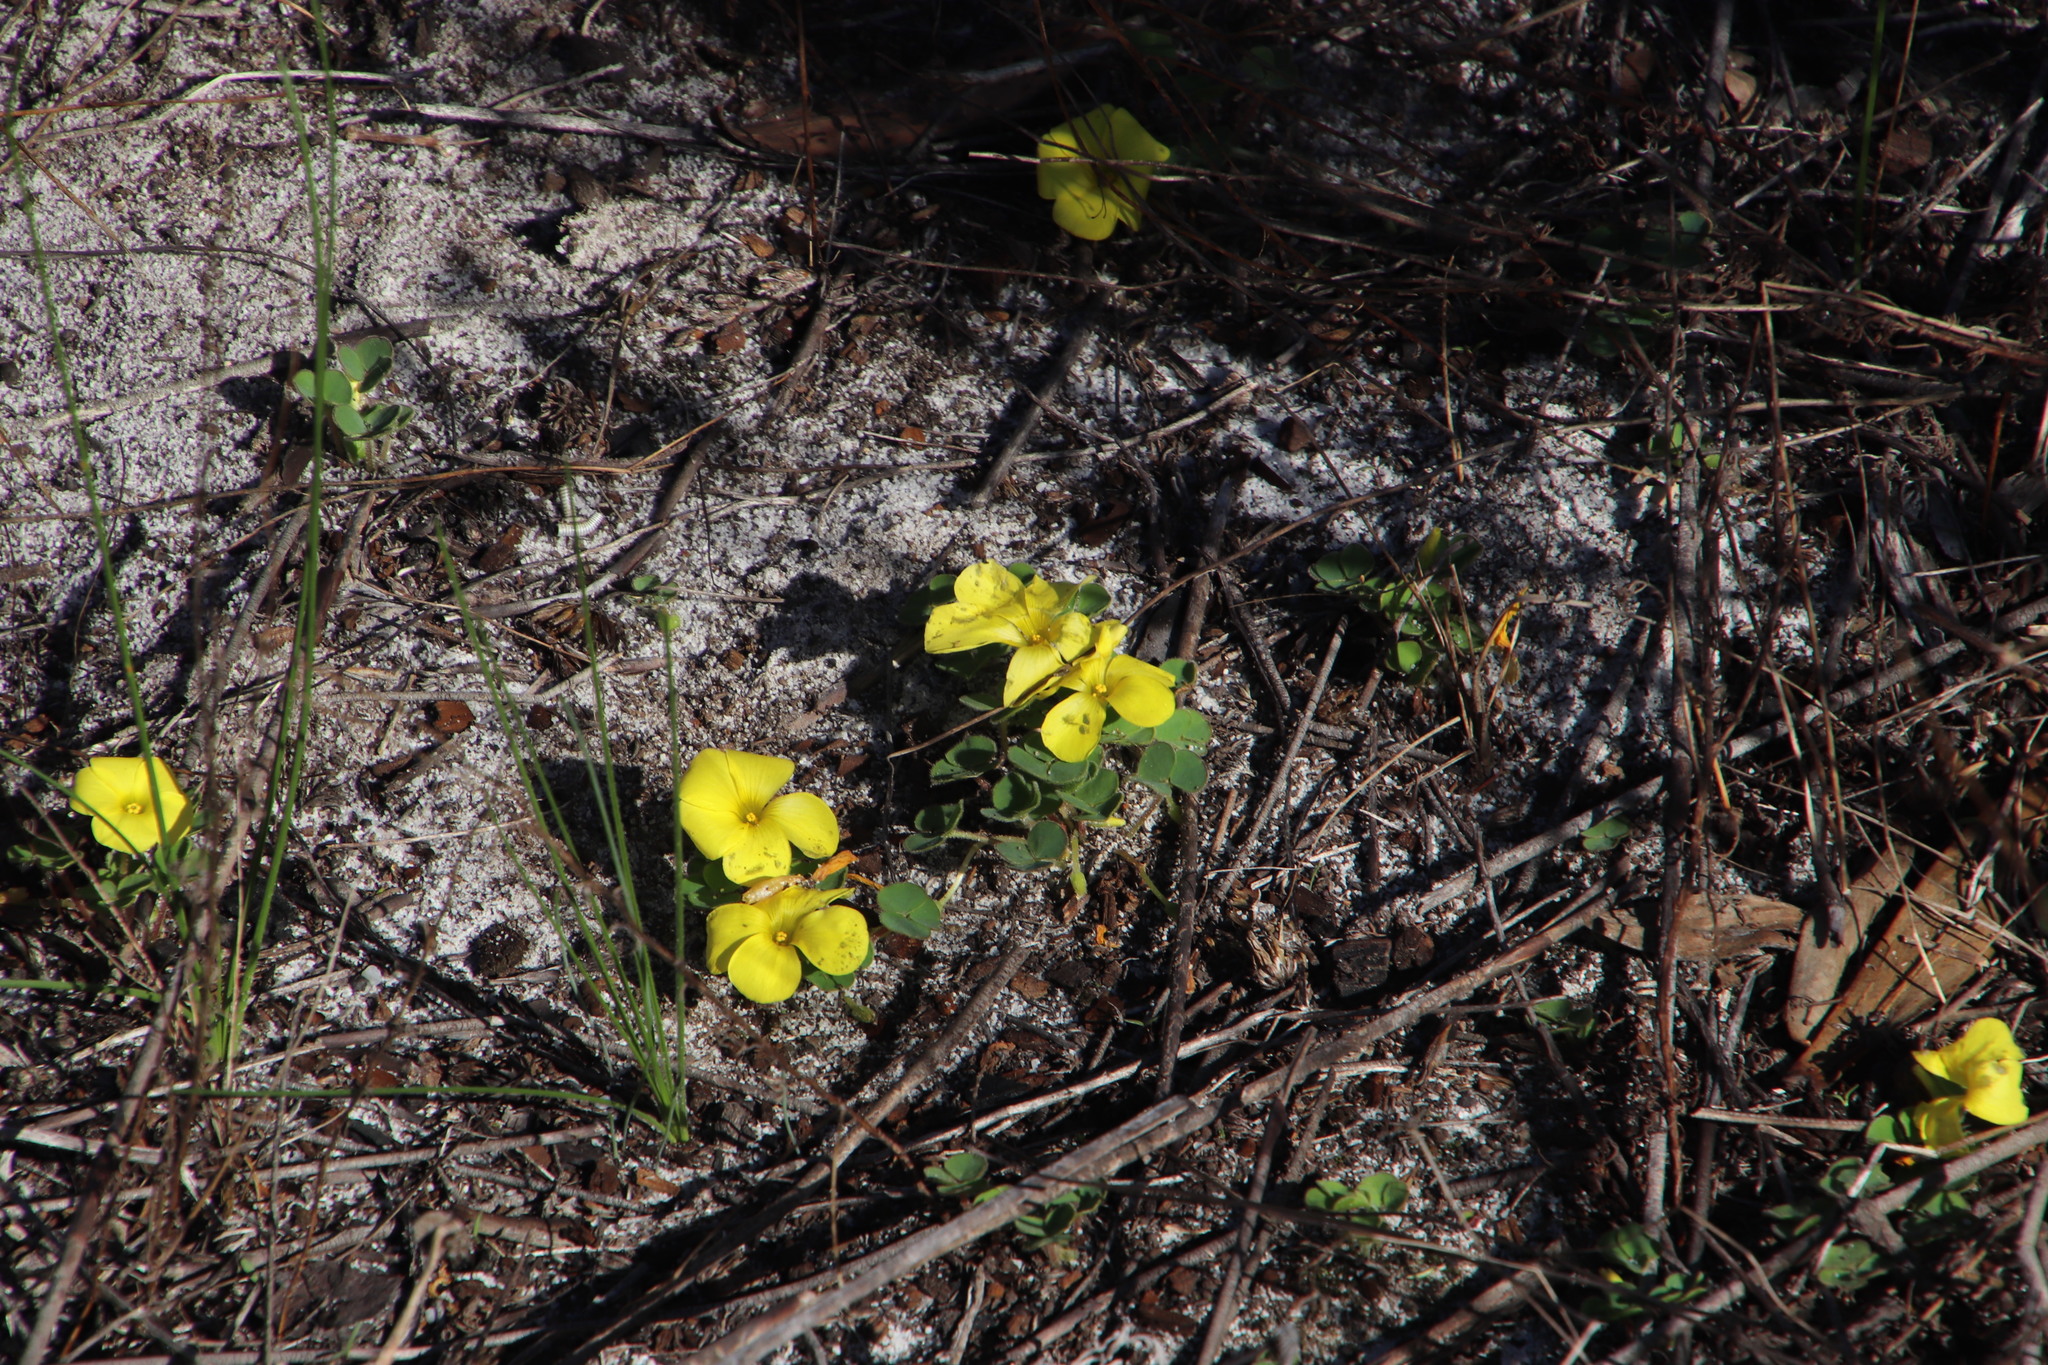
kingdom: Plantae
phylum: Tracheophyta
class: Magnoliopsida
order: Oxalidales
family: Oxalidaceae
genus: Oxalis
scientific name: Oxalis luteola
